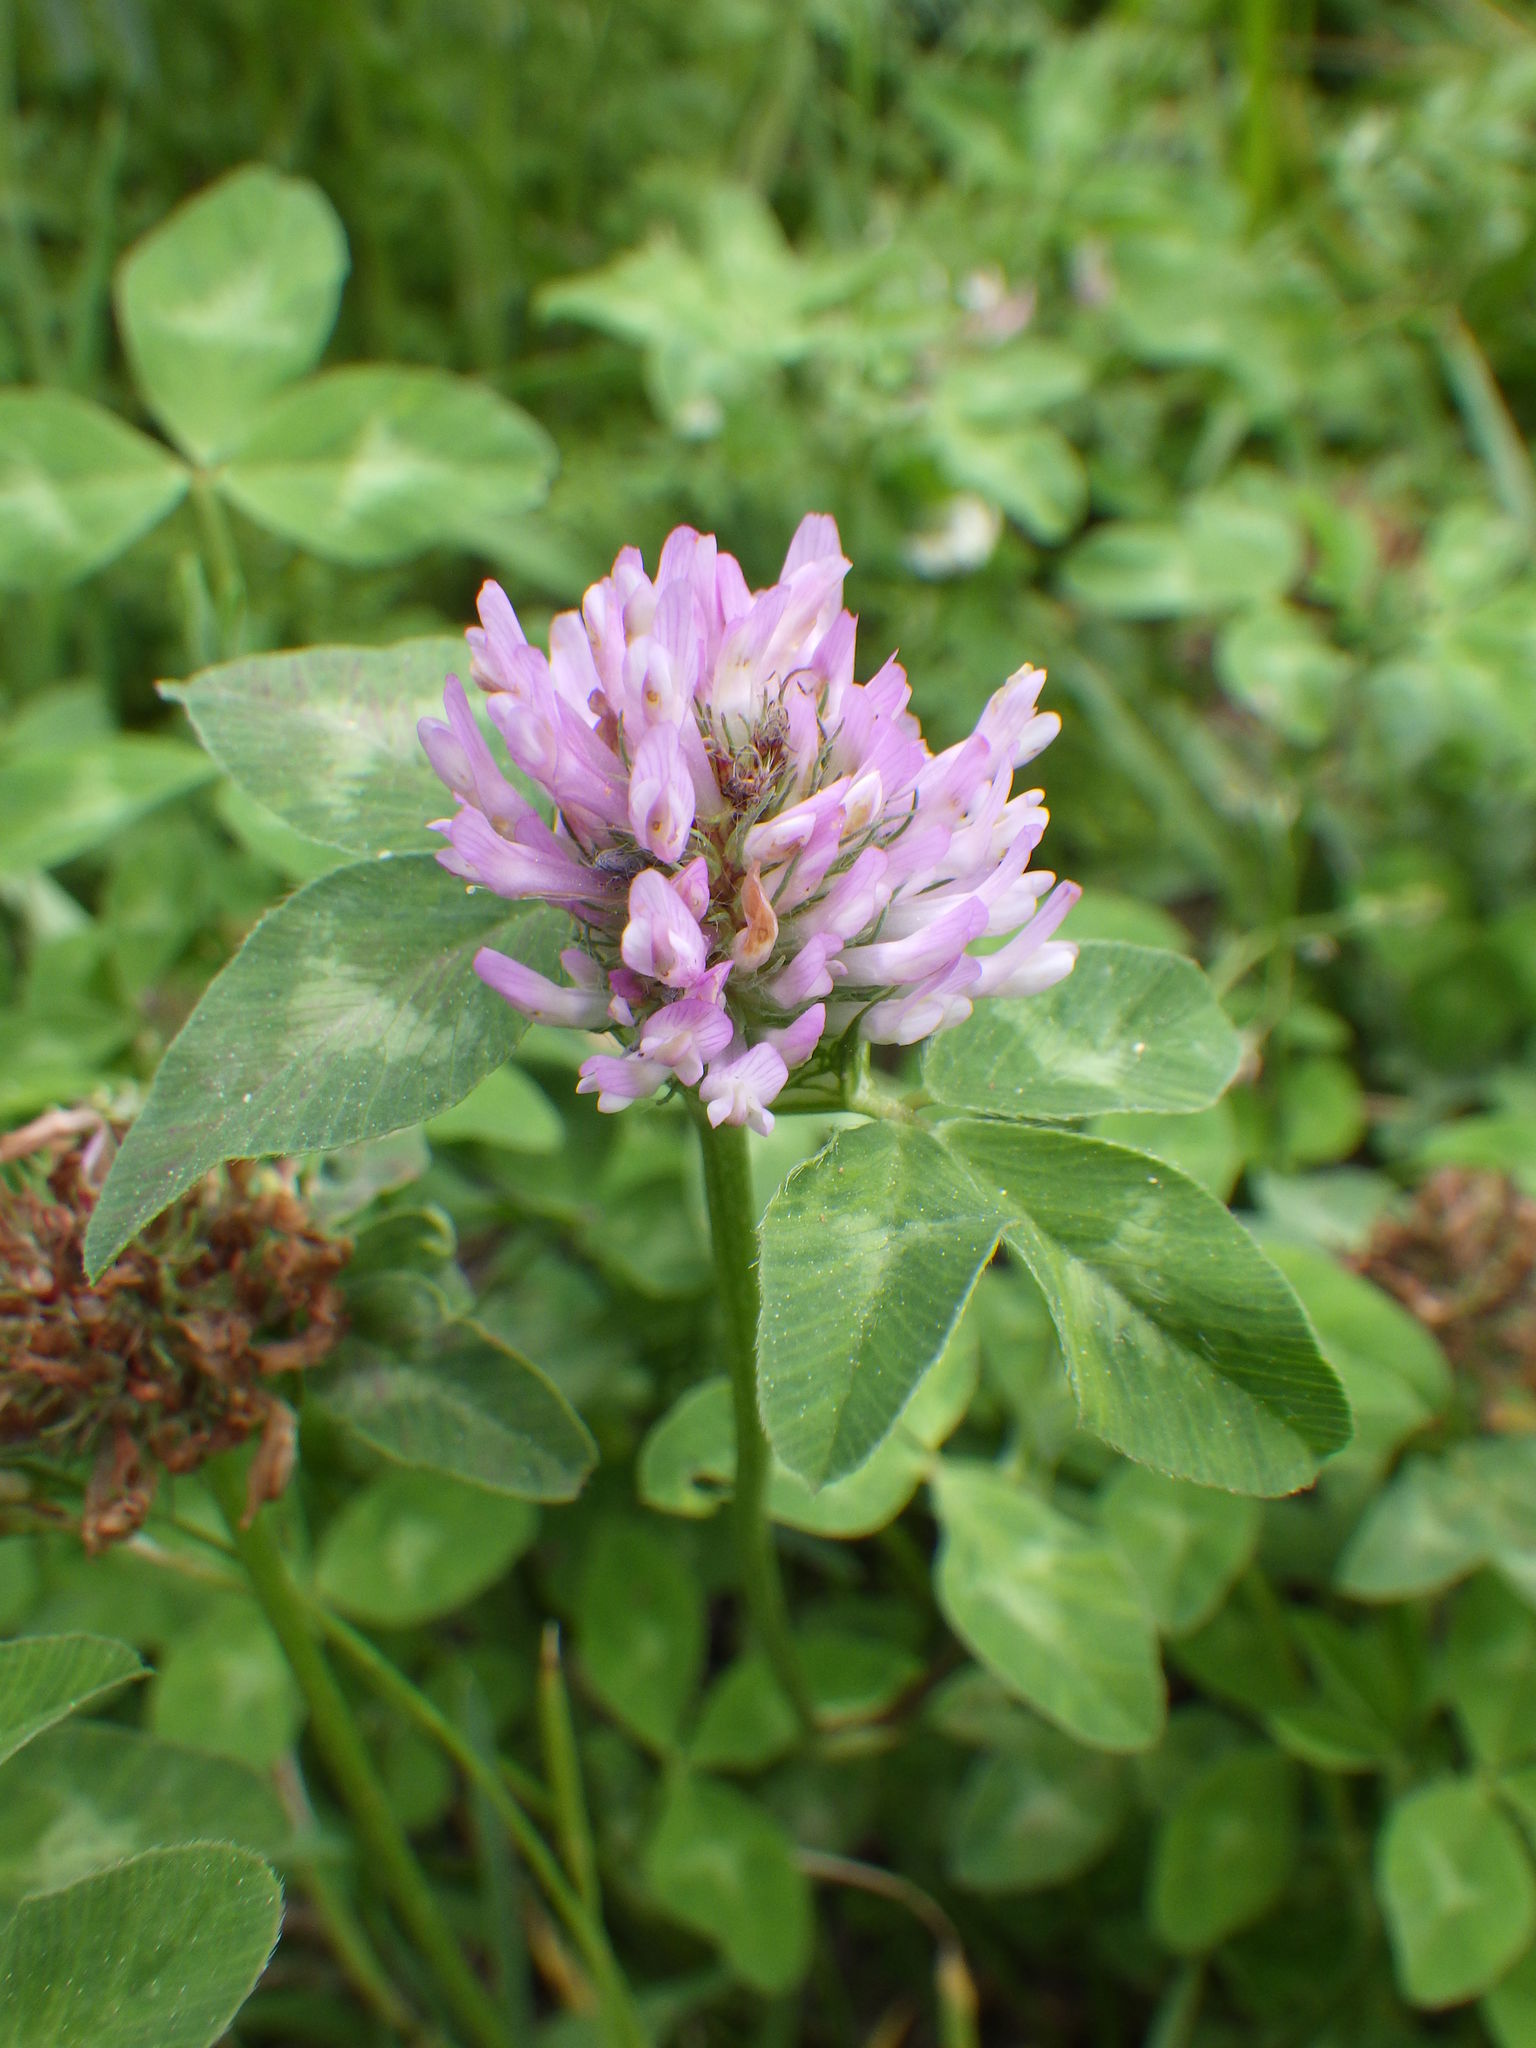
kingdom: Plantae
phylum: Tracheophyta
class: Magnoliopsida
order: Fabales
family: Fabaceae
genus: Trifolium
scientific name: Trifolium pratense
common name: Red clover
